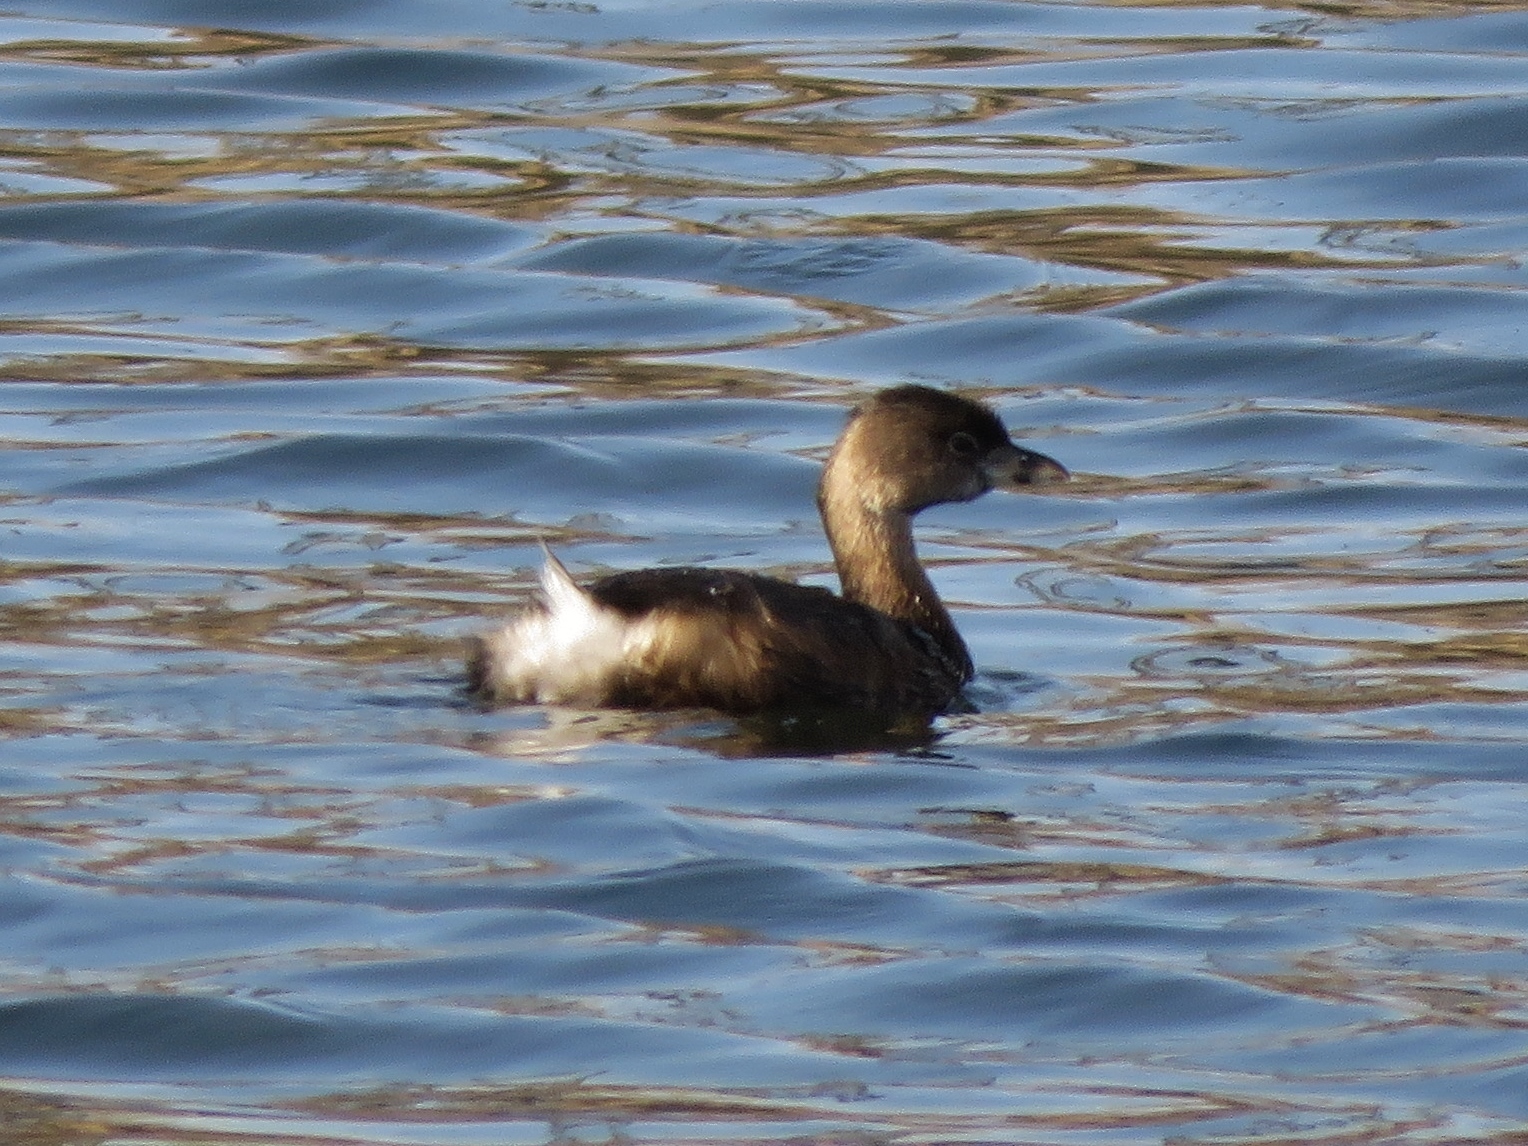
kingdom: Animalia
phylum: Chordata
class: Aves
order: Podicipediformes
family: Podicipedidae
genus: Podilymbus
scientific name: Podilymbus podiceps
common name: Pied-billed grebe
